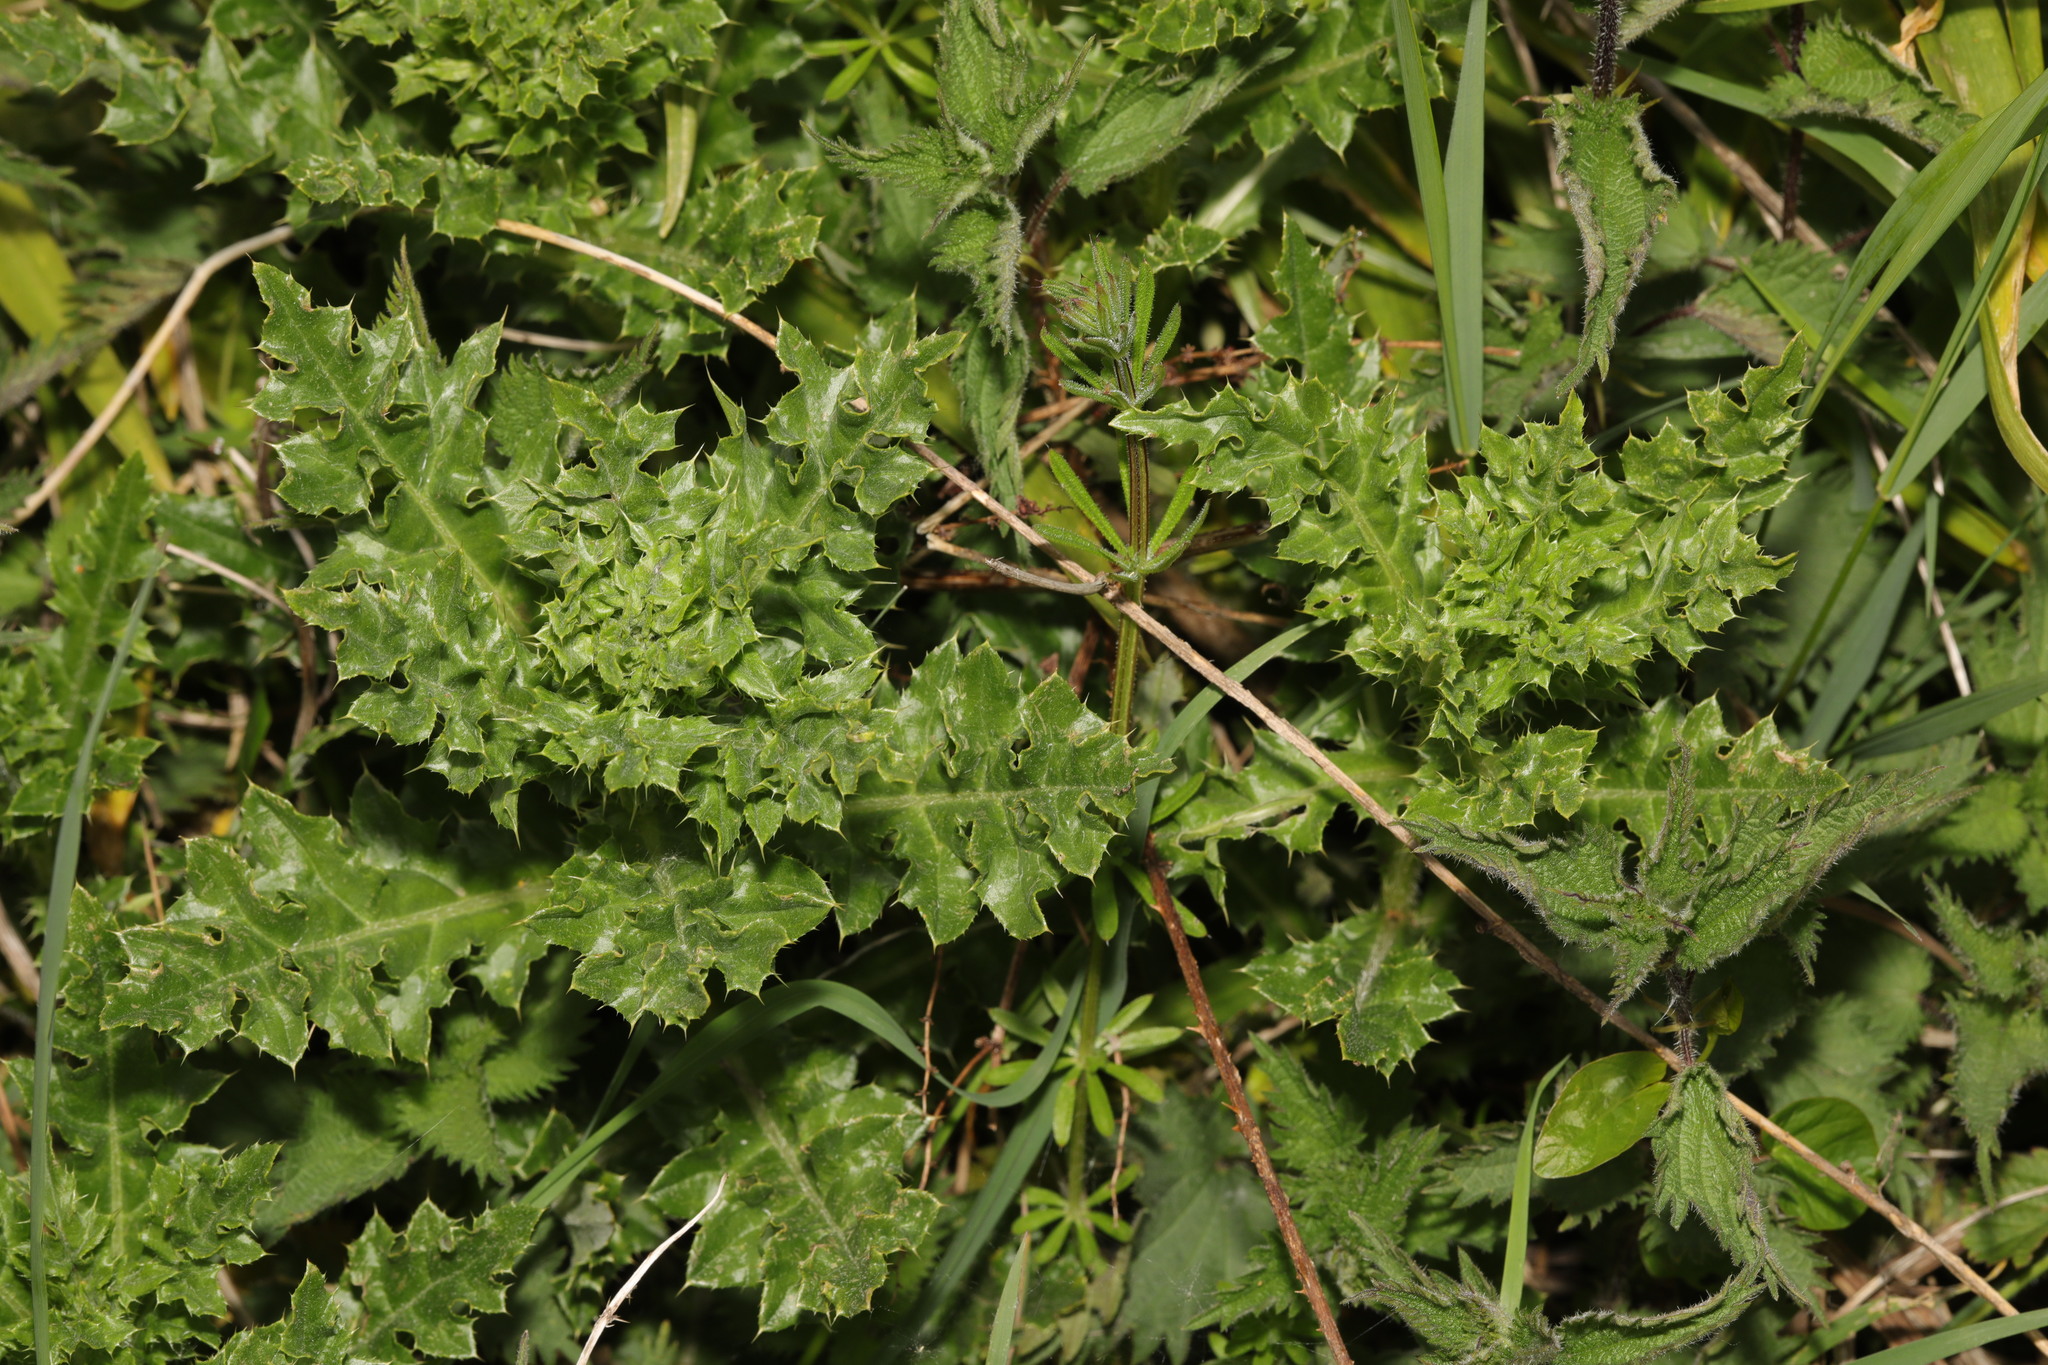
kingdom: Plantae
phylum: Tracheophyta
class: Magnoliopsida
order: Asterales
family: Asteraceae
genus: Cirsium
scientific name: Cirsium arvense
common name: Creeping thistle
